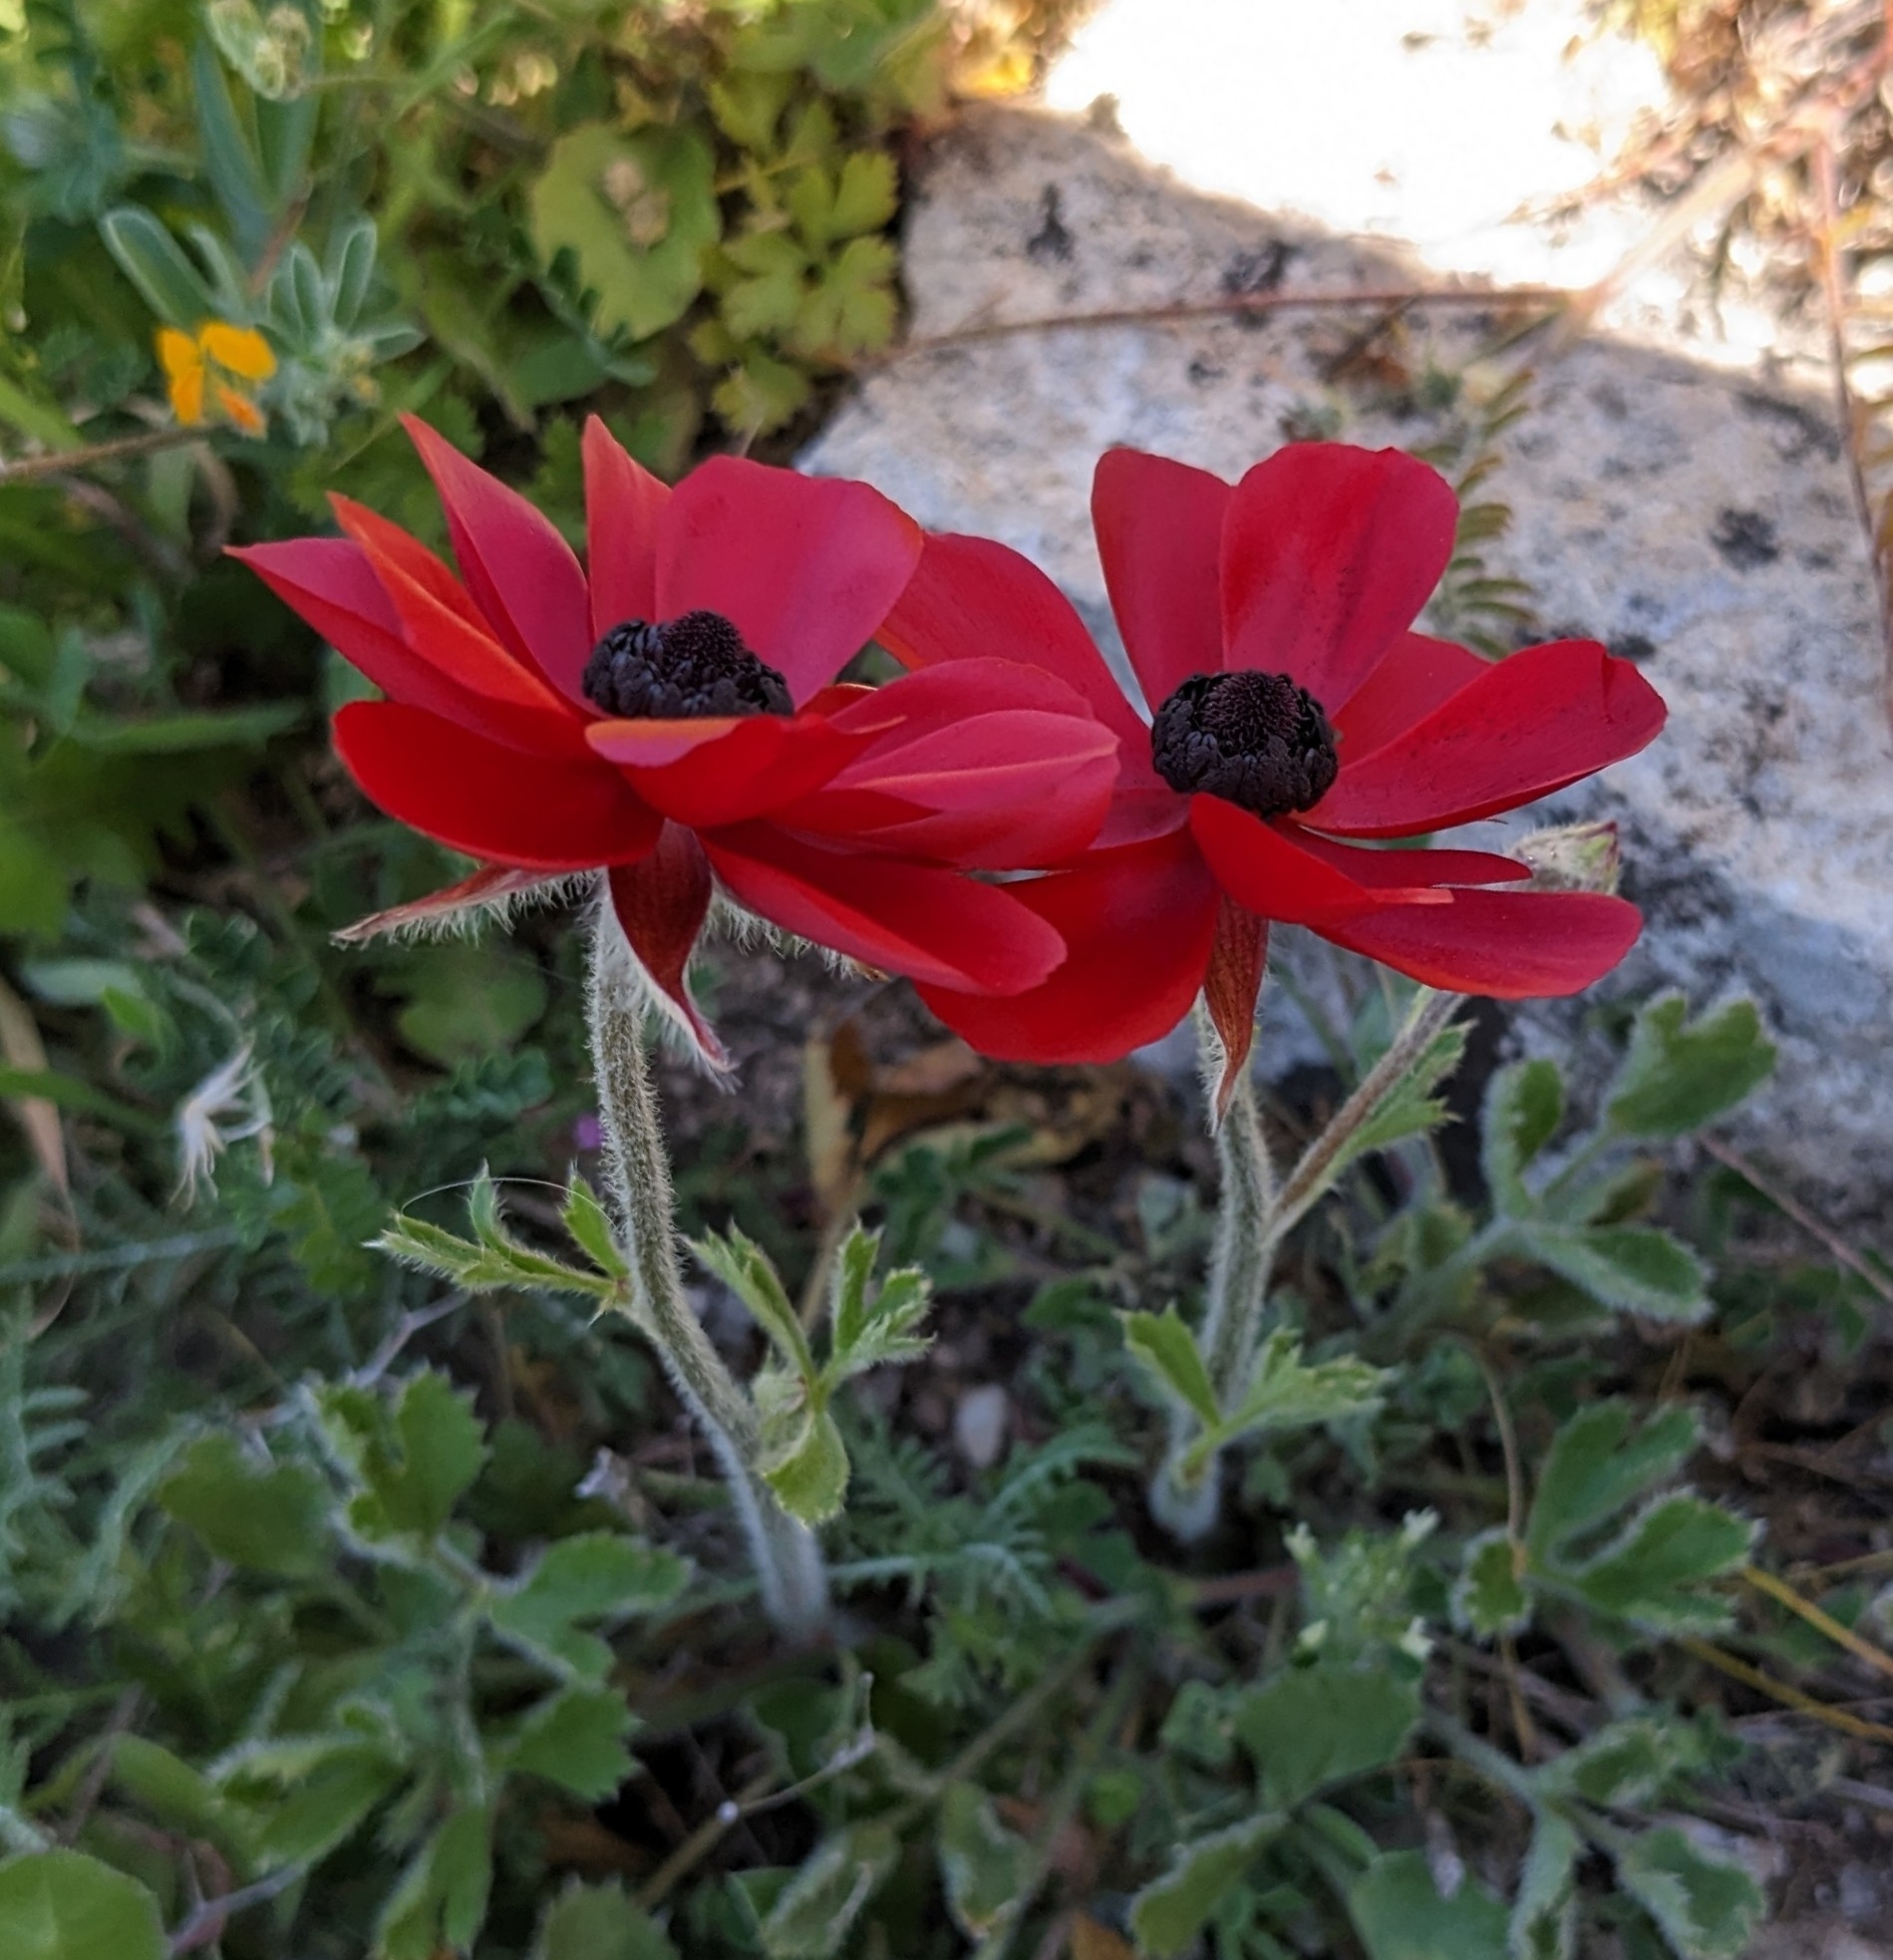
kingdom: Plantae
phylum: Tracheophyta
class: Magnoliopsida
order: Ranunculales
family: Ranunculaceae
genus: Ranunculus
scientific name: Ranunculus asiaticus
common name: Persian buttercup
